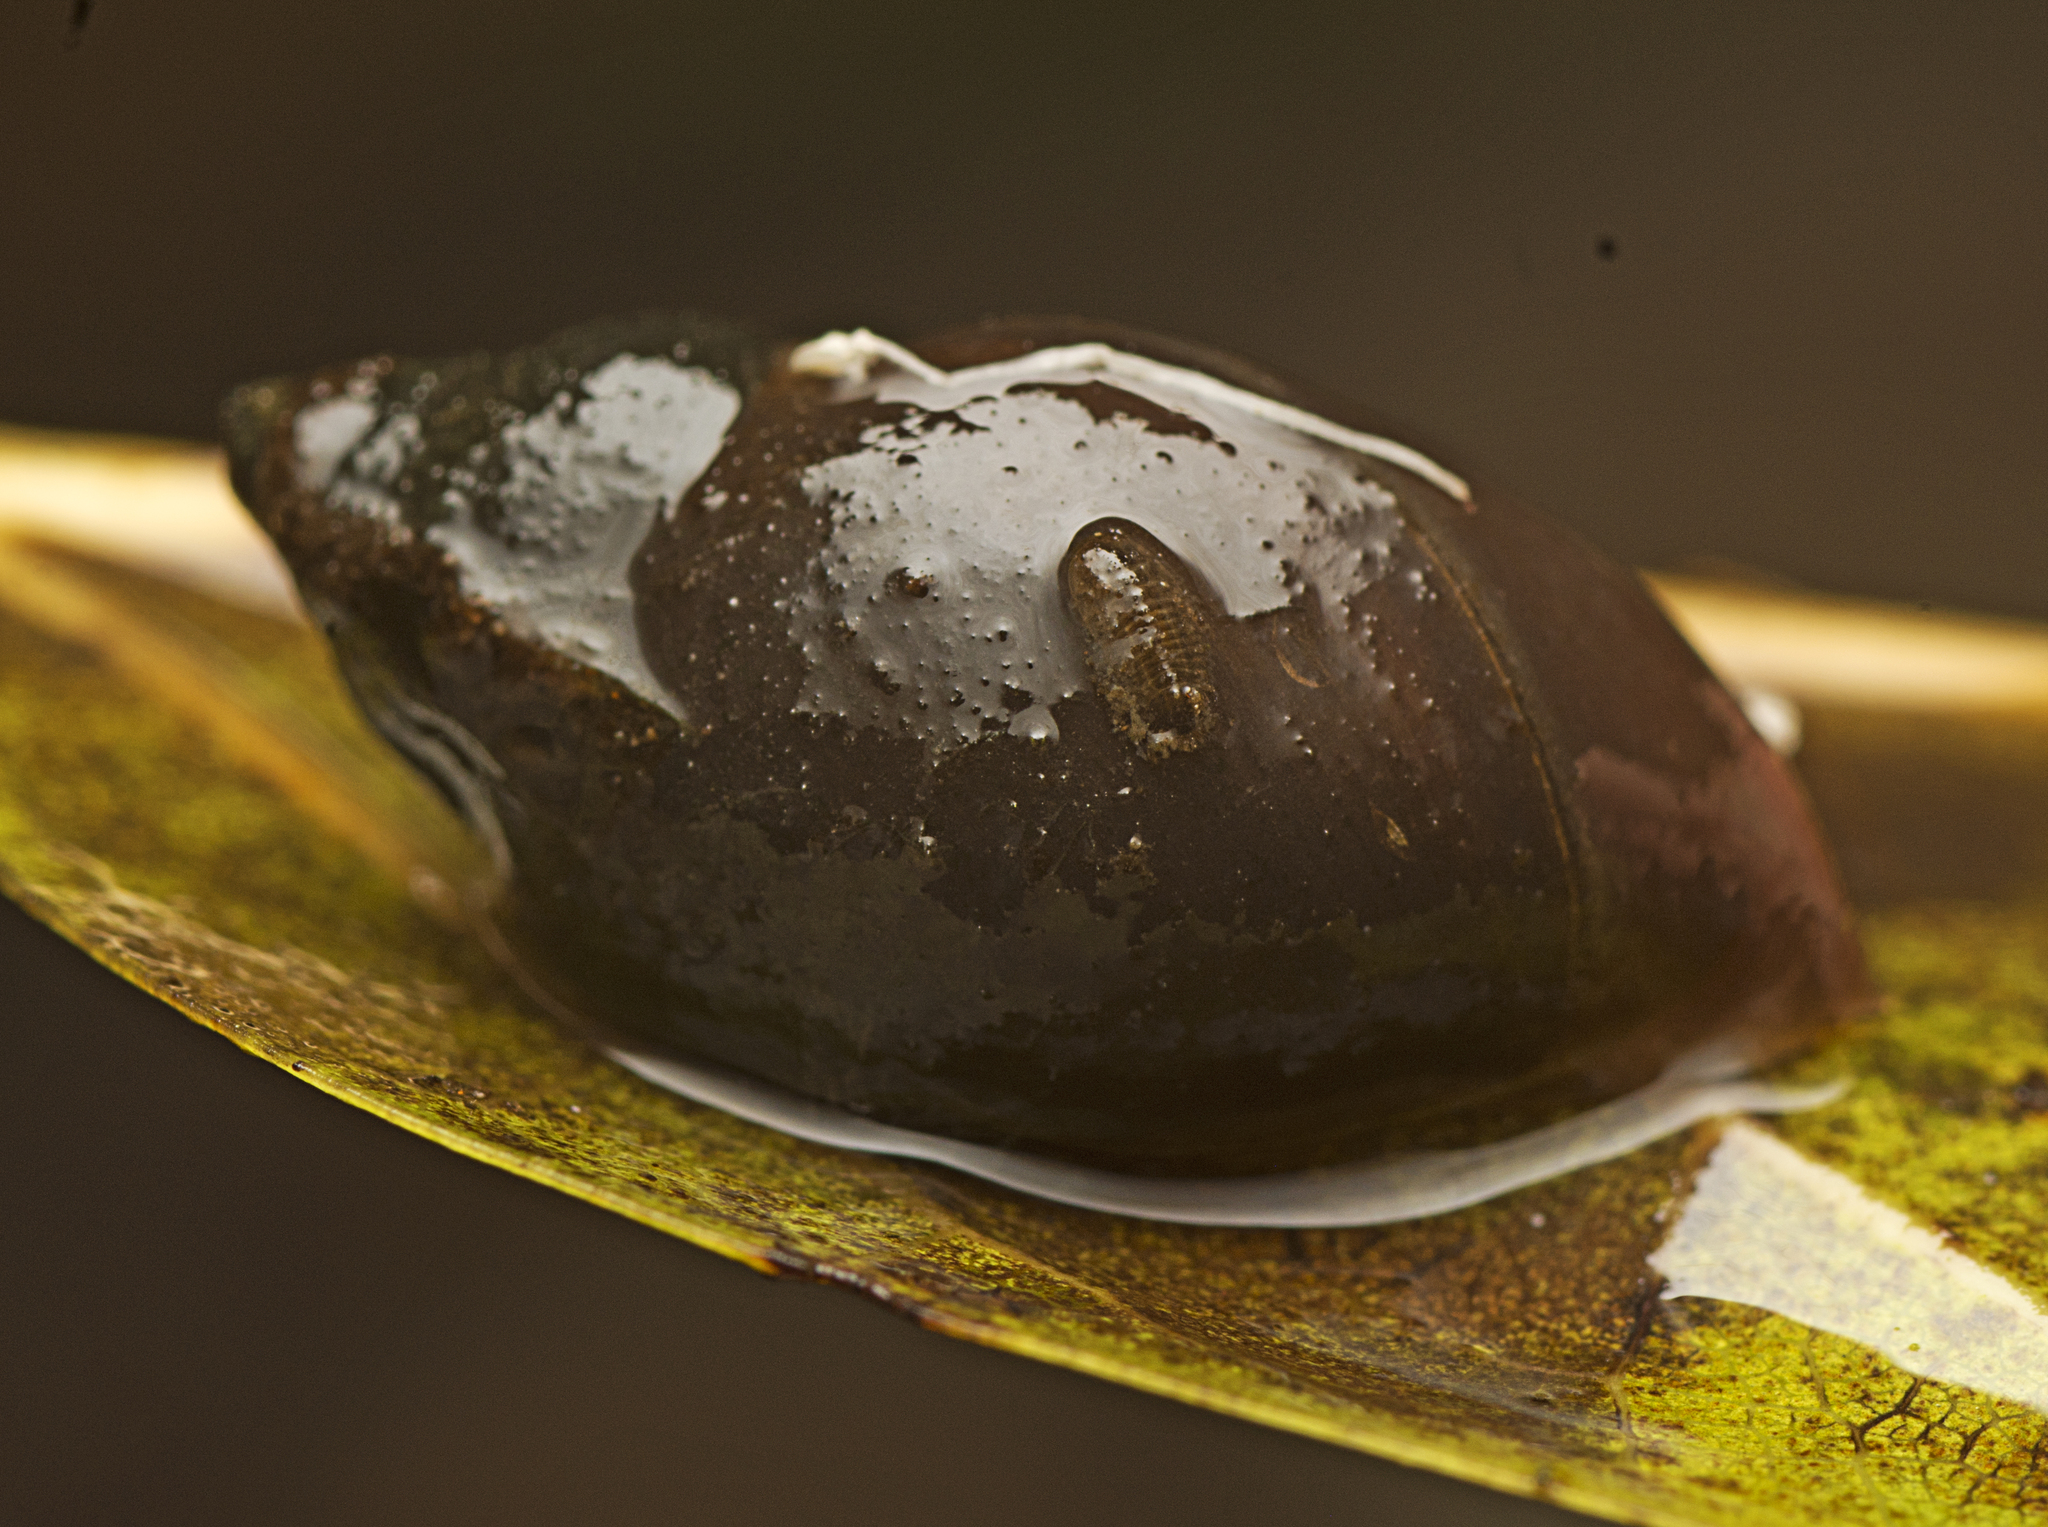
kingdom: Animalia
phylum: Mollusca
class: Gastropoda
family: Planorbidae
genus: Glyptophysa
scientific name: Glyptophysa novaehollandica
